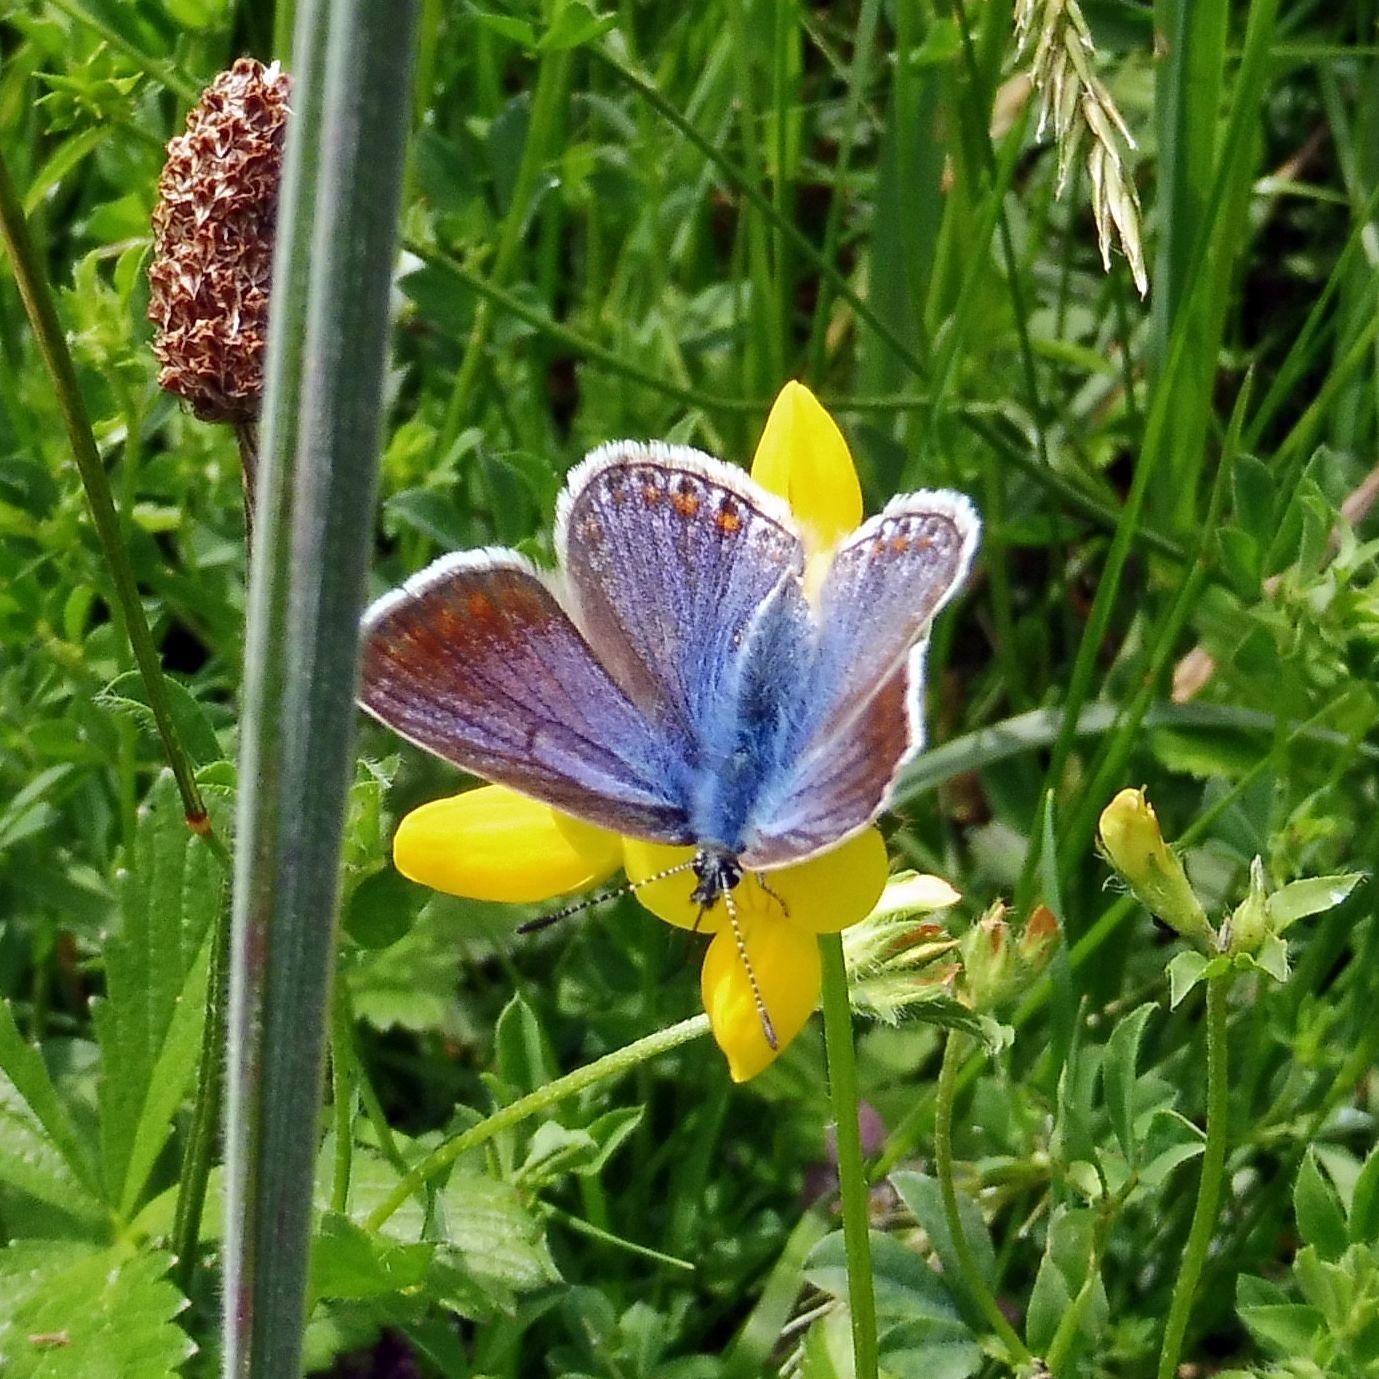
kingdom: Animalia
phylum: Arthropoda
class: Insecta
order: Lepidoptera
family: Lycaenidae
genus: Polyommatus
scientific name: Polyommatus icarus
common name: Common blue
